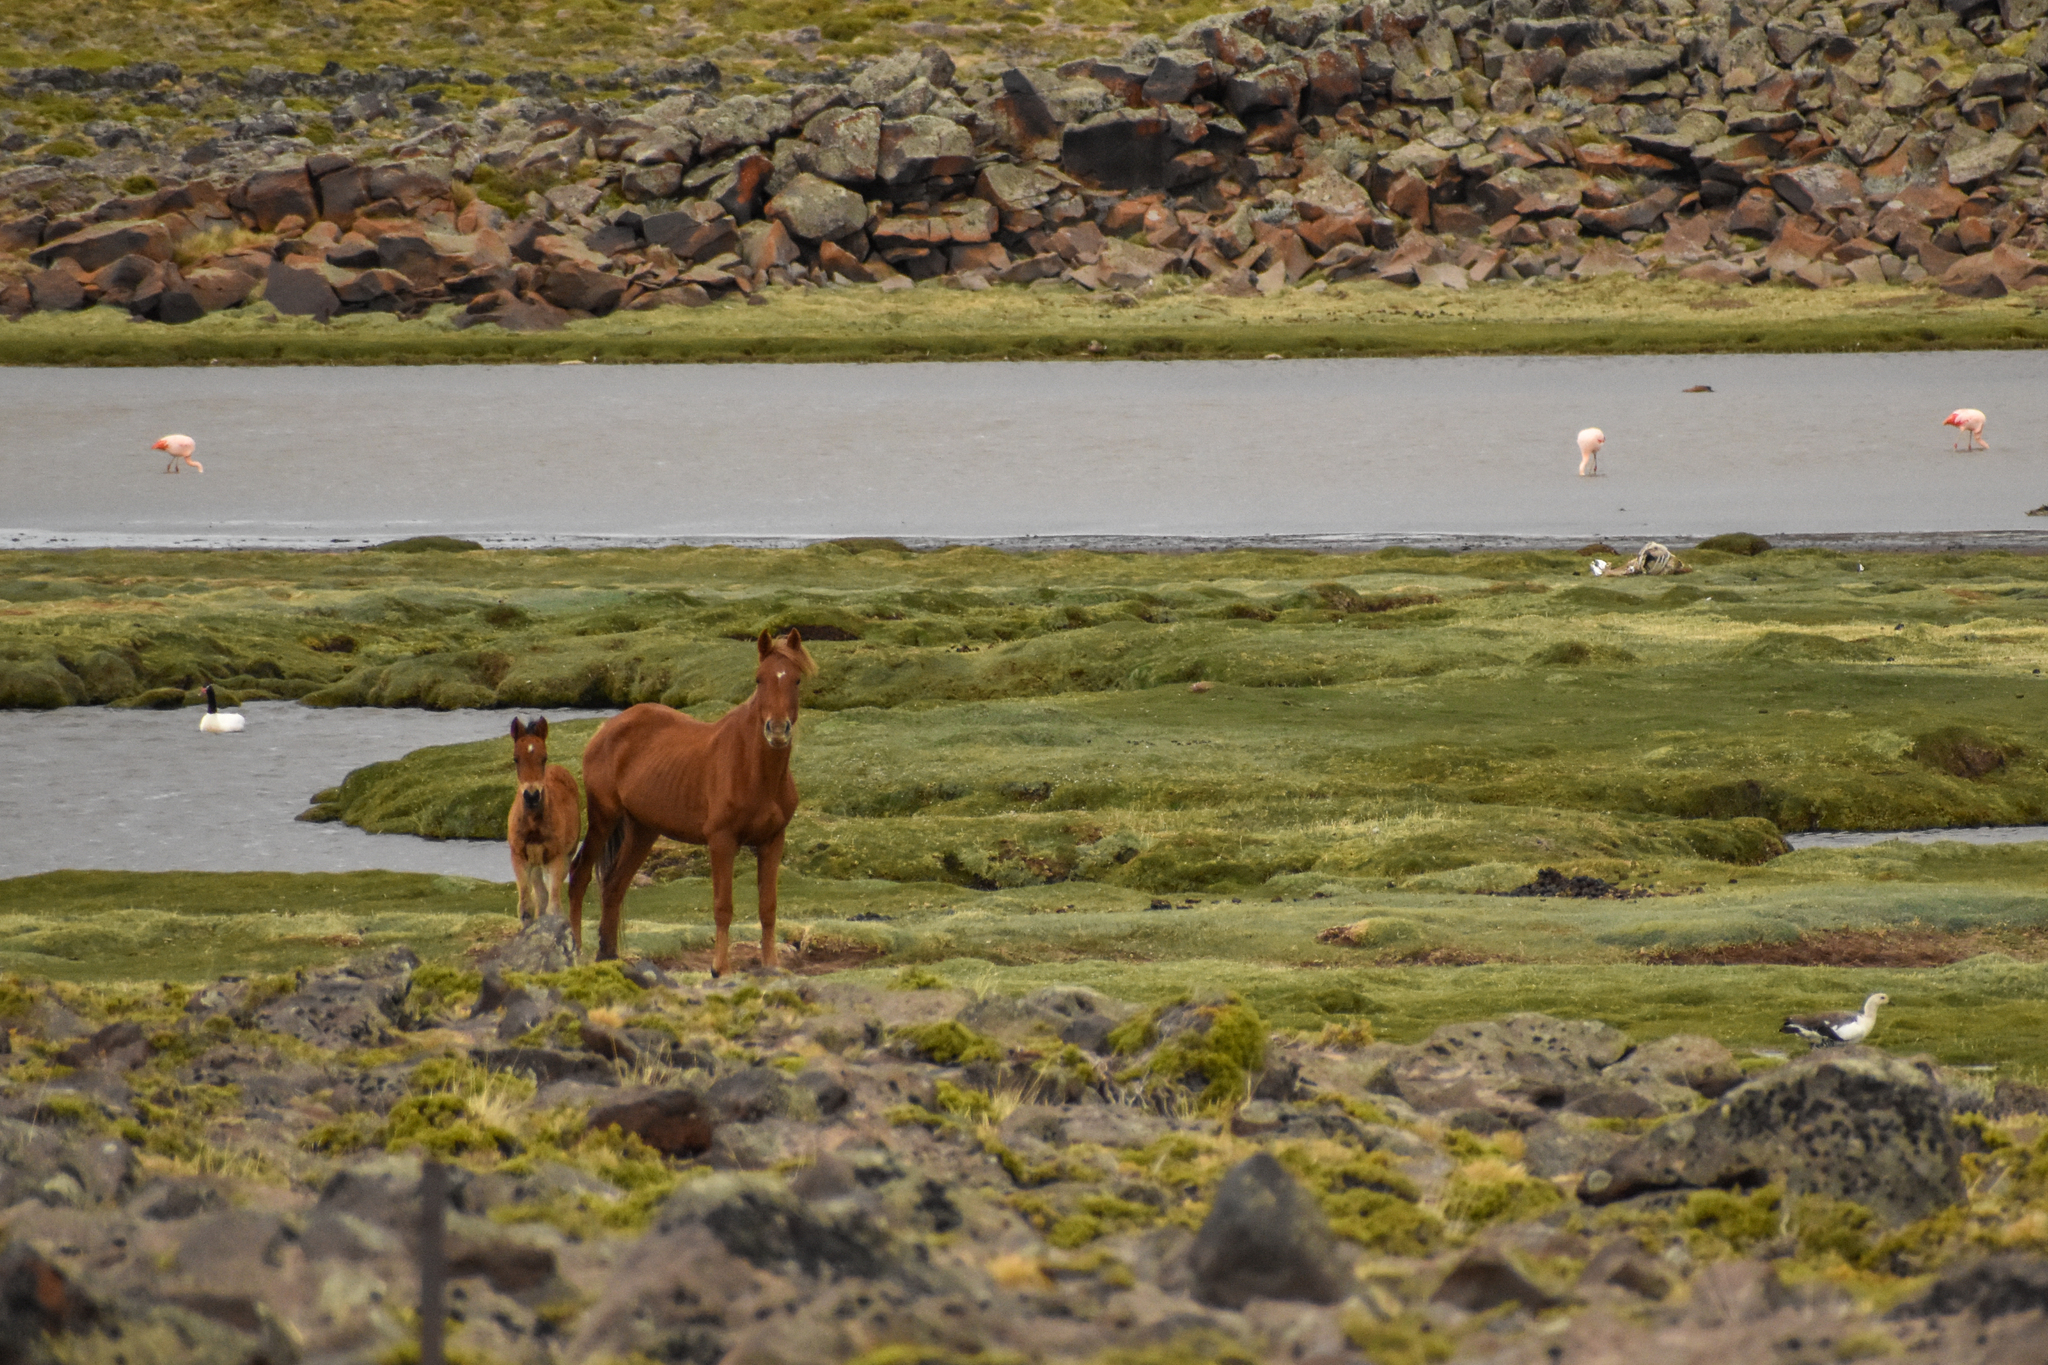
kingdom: Animalia
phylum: Chordata
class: Mammalia
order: Perissodactyla
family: Equidae
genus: Equus
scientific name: Equus caballus
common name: Horse
